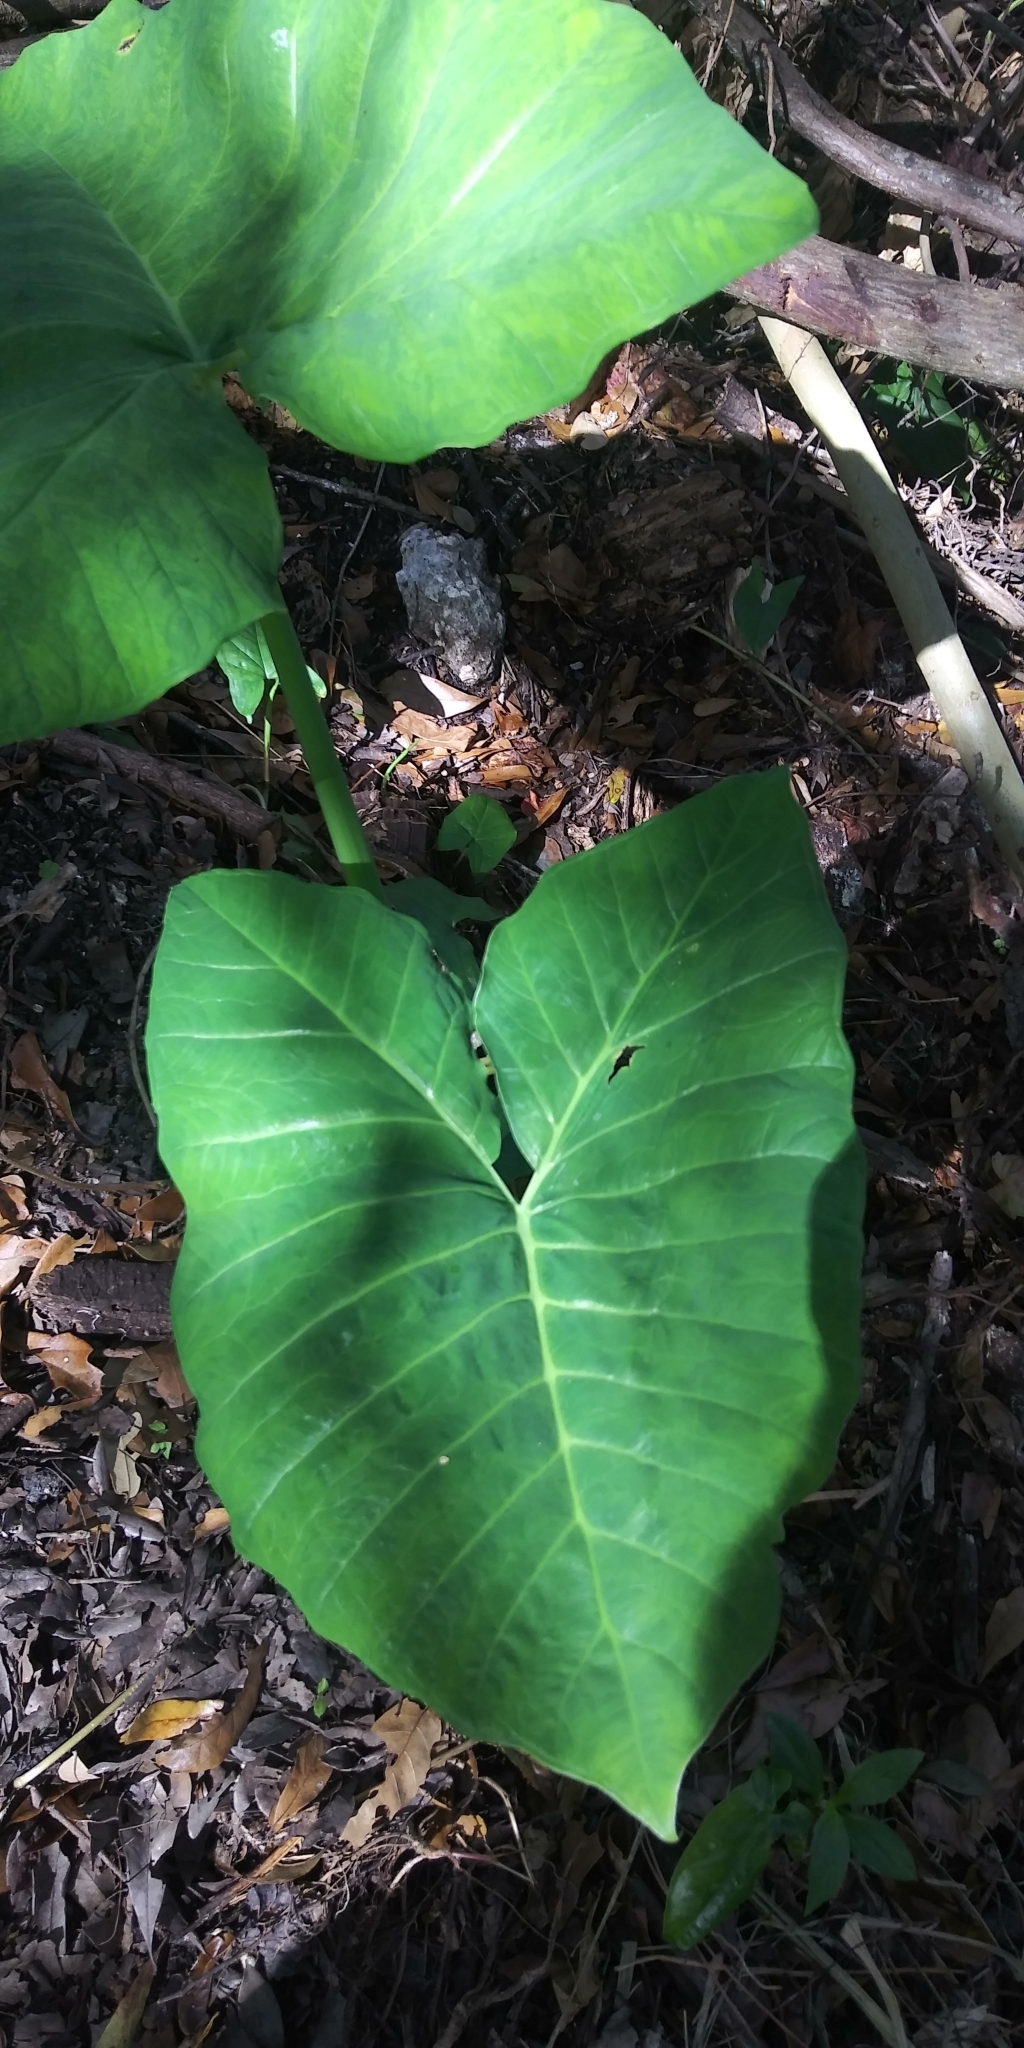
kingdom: Plantae
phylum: Tracheophyta
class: Liliopsida
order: Alismatales
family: Araceae
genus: Xanthosoma
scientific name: Xanthosoma robustum
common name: Capote
